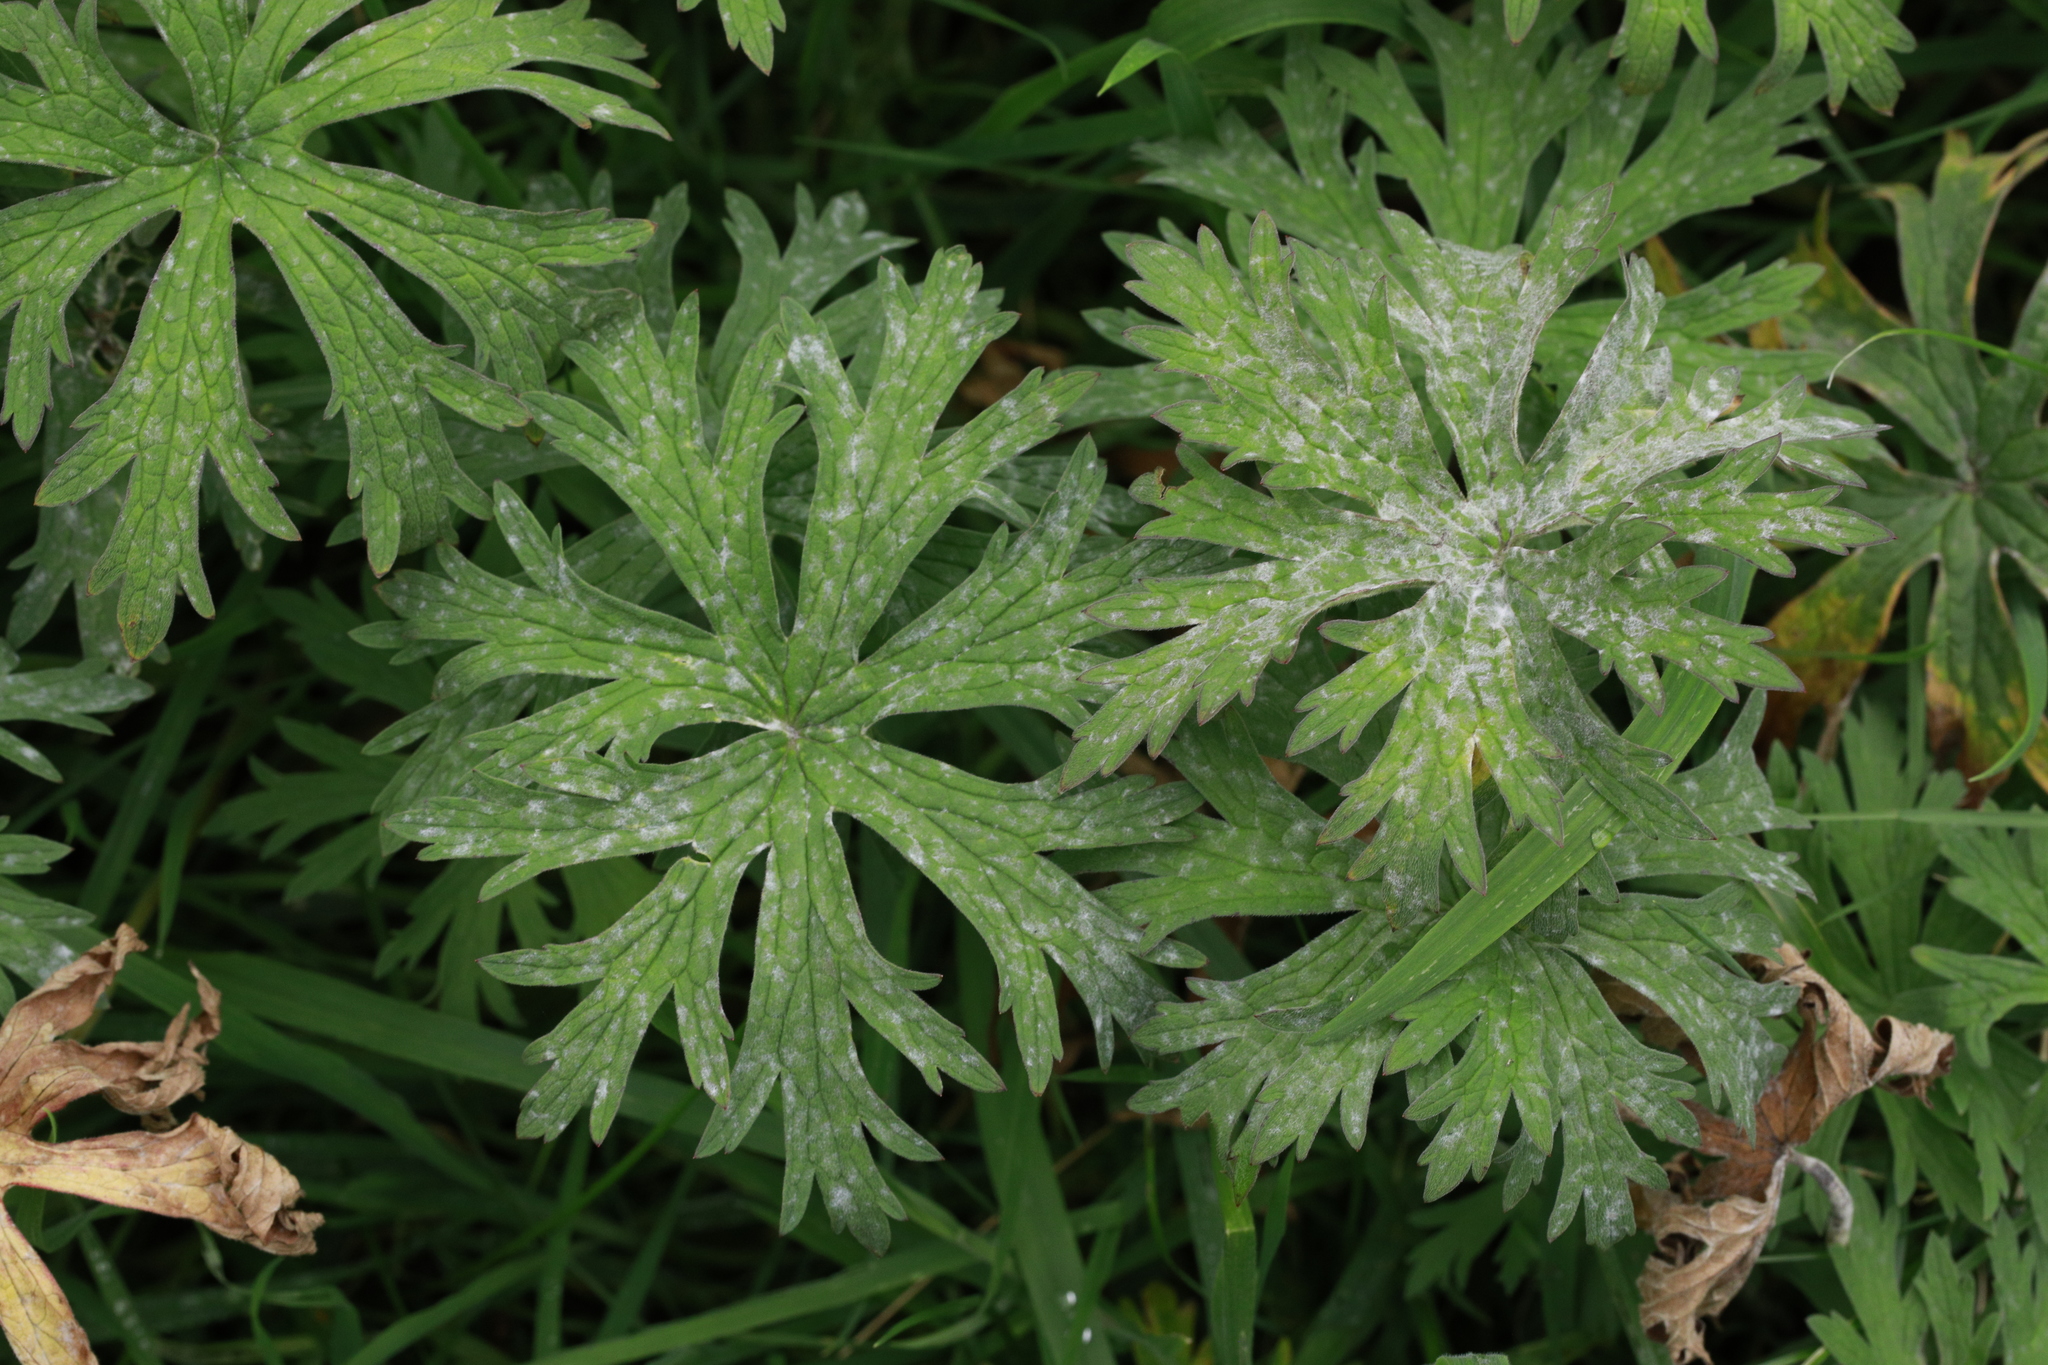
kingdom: Plantae
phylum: Tracheophyta
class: Magnoliopsida
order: Geraniales
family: Geraniaceae
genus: Geranium
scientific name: Geranium pratense
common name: Meadow crane's-bill
